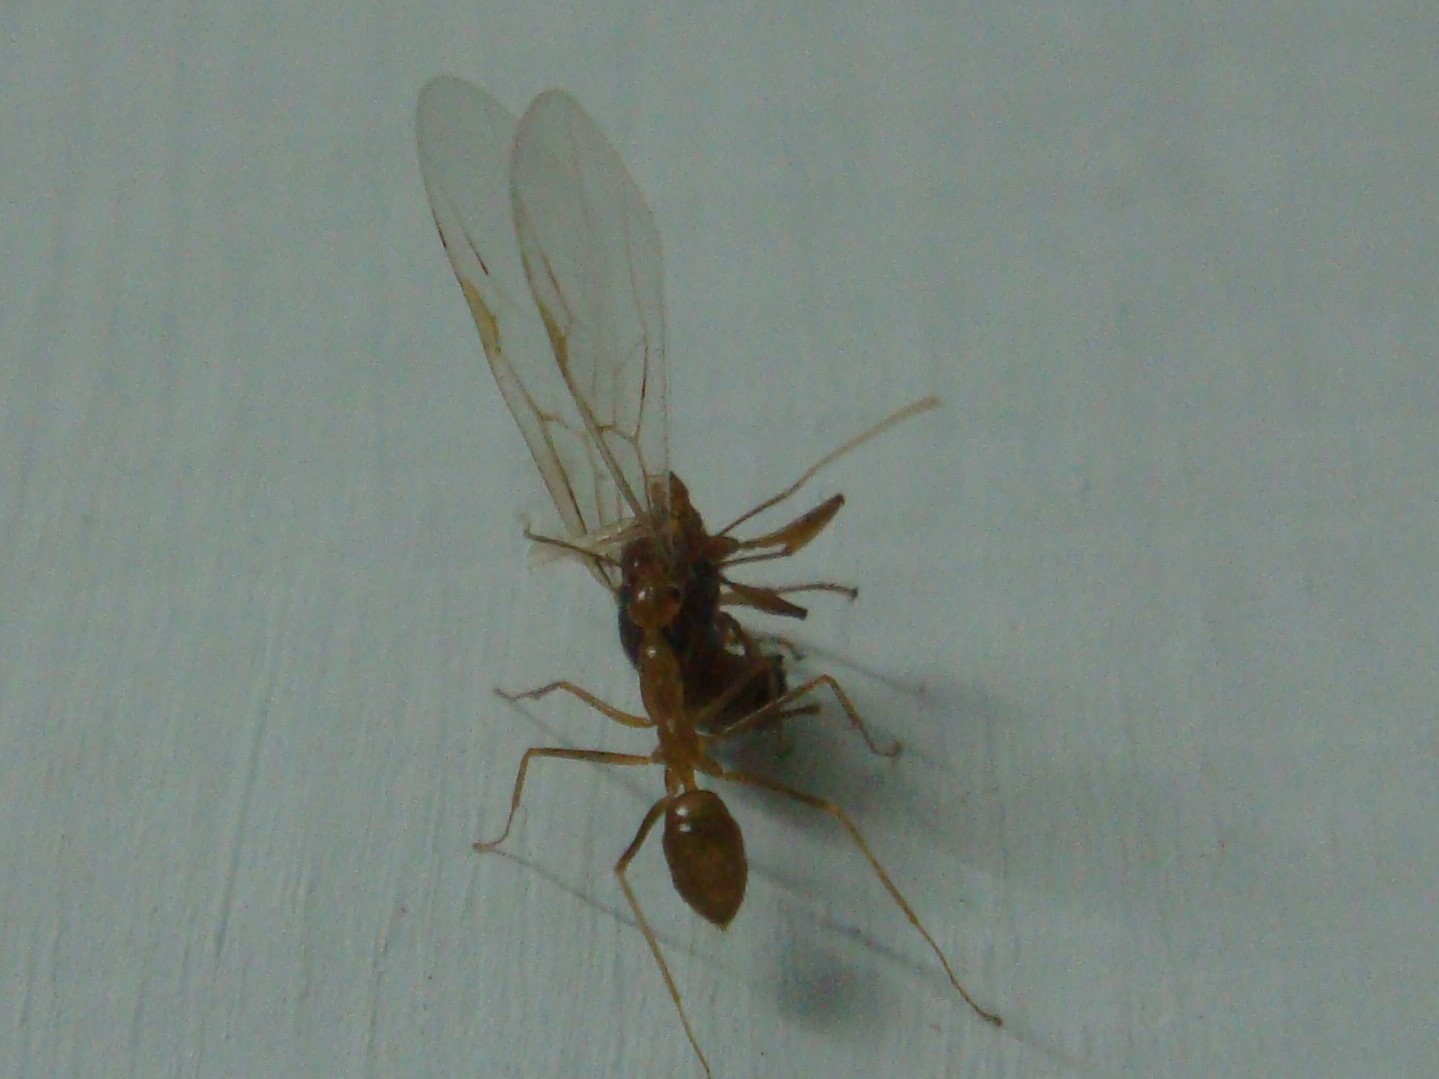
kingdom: Animalia
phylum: Arthropoda
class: Insecta
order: Hymenoptera
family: Formicidae
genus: Anoplolepis
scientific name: Anoplolepis gracilipes
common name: Ant
